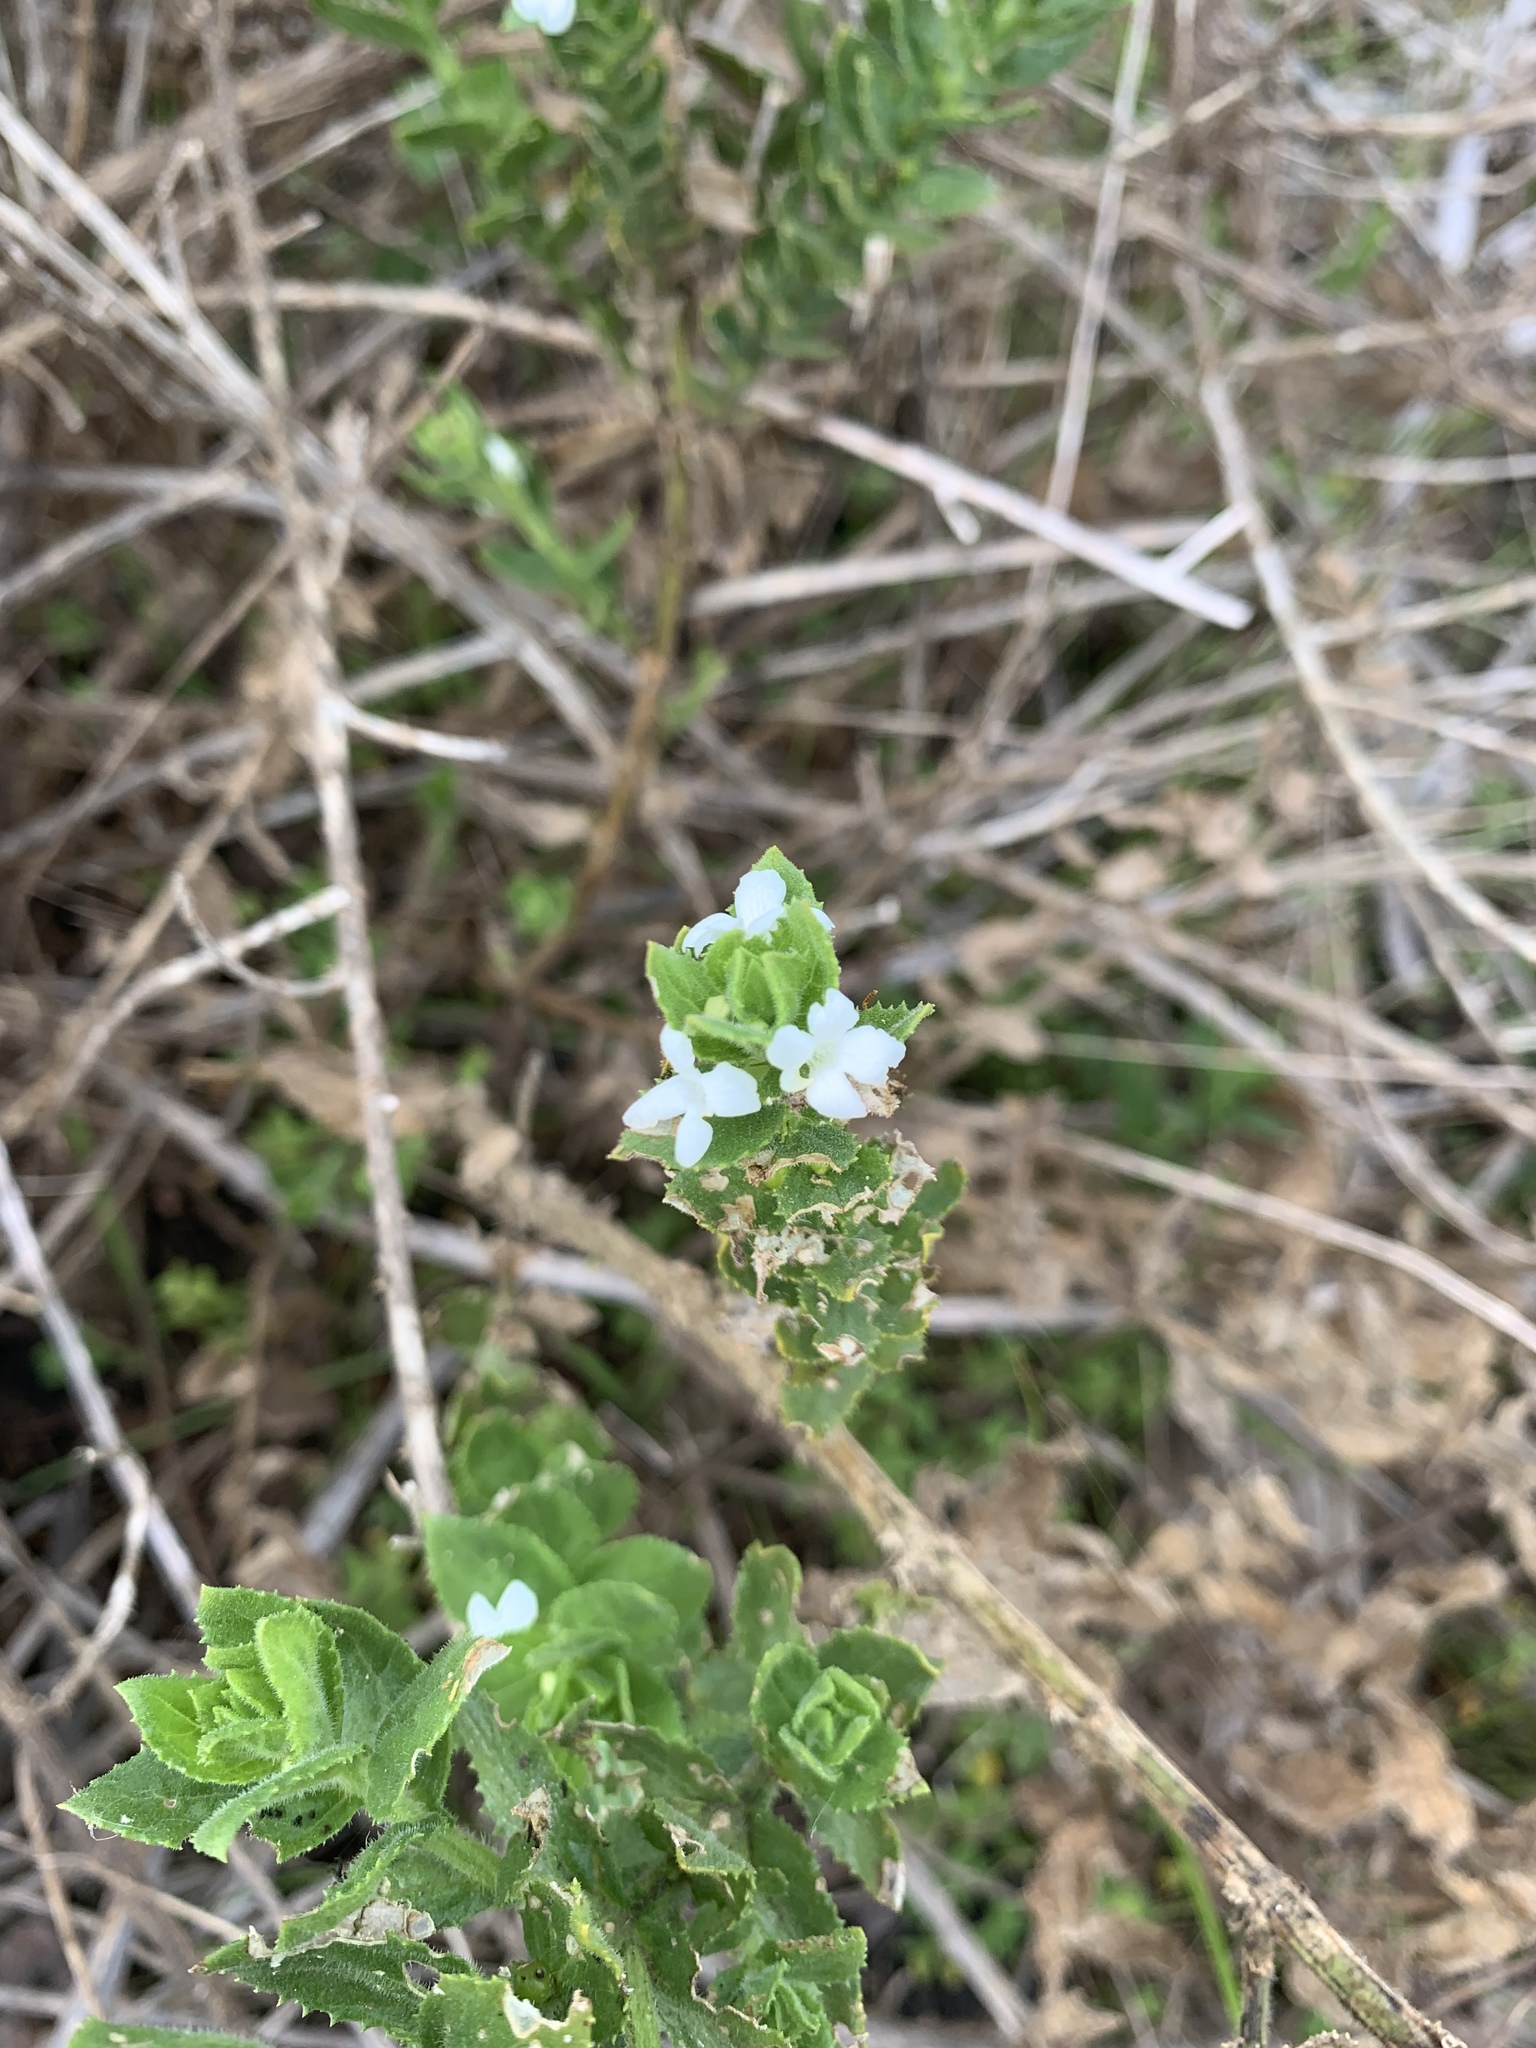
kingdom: Plantae
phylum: Tracheophyta
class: Magnoliopsida
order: Lamiales
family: Scrophulariaceae
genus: Oftia
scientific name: Oftia africana
